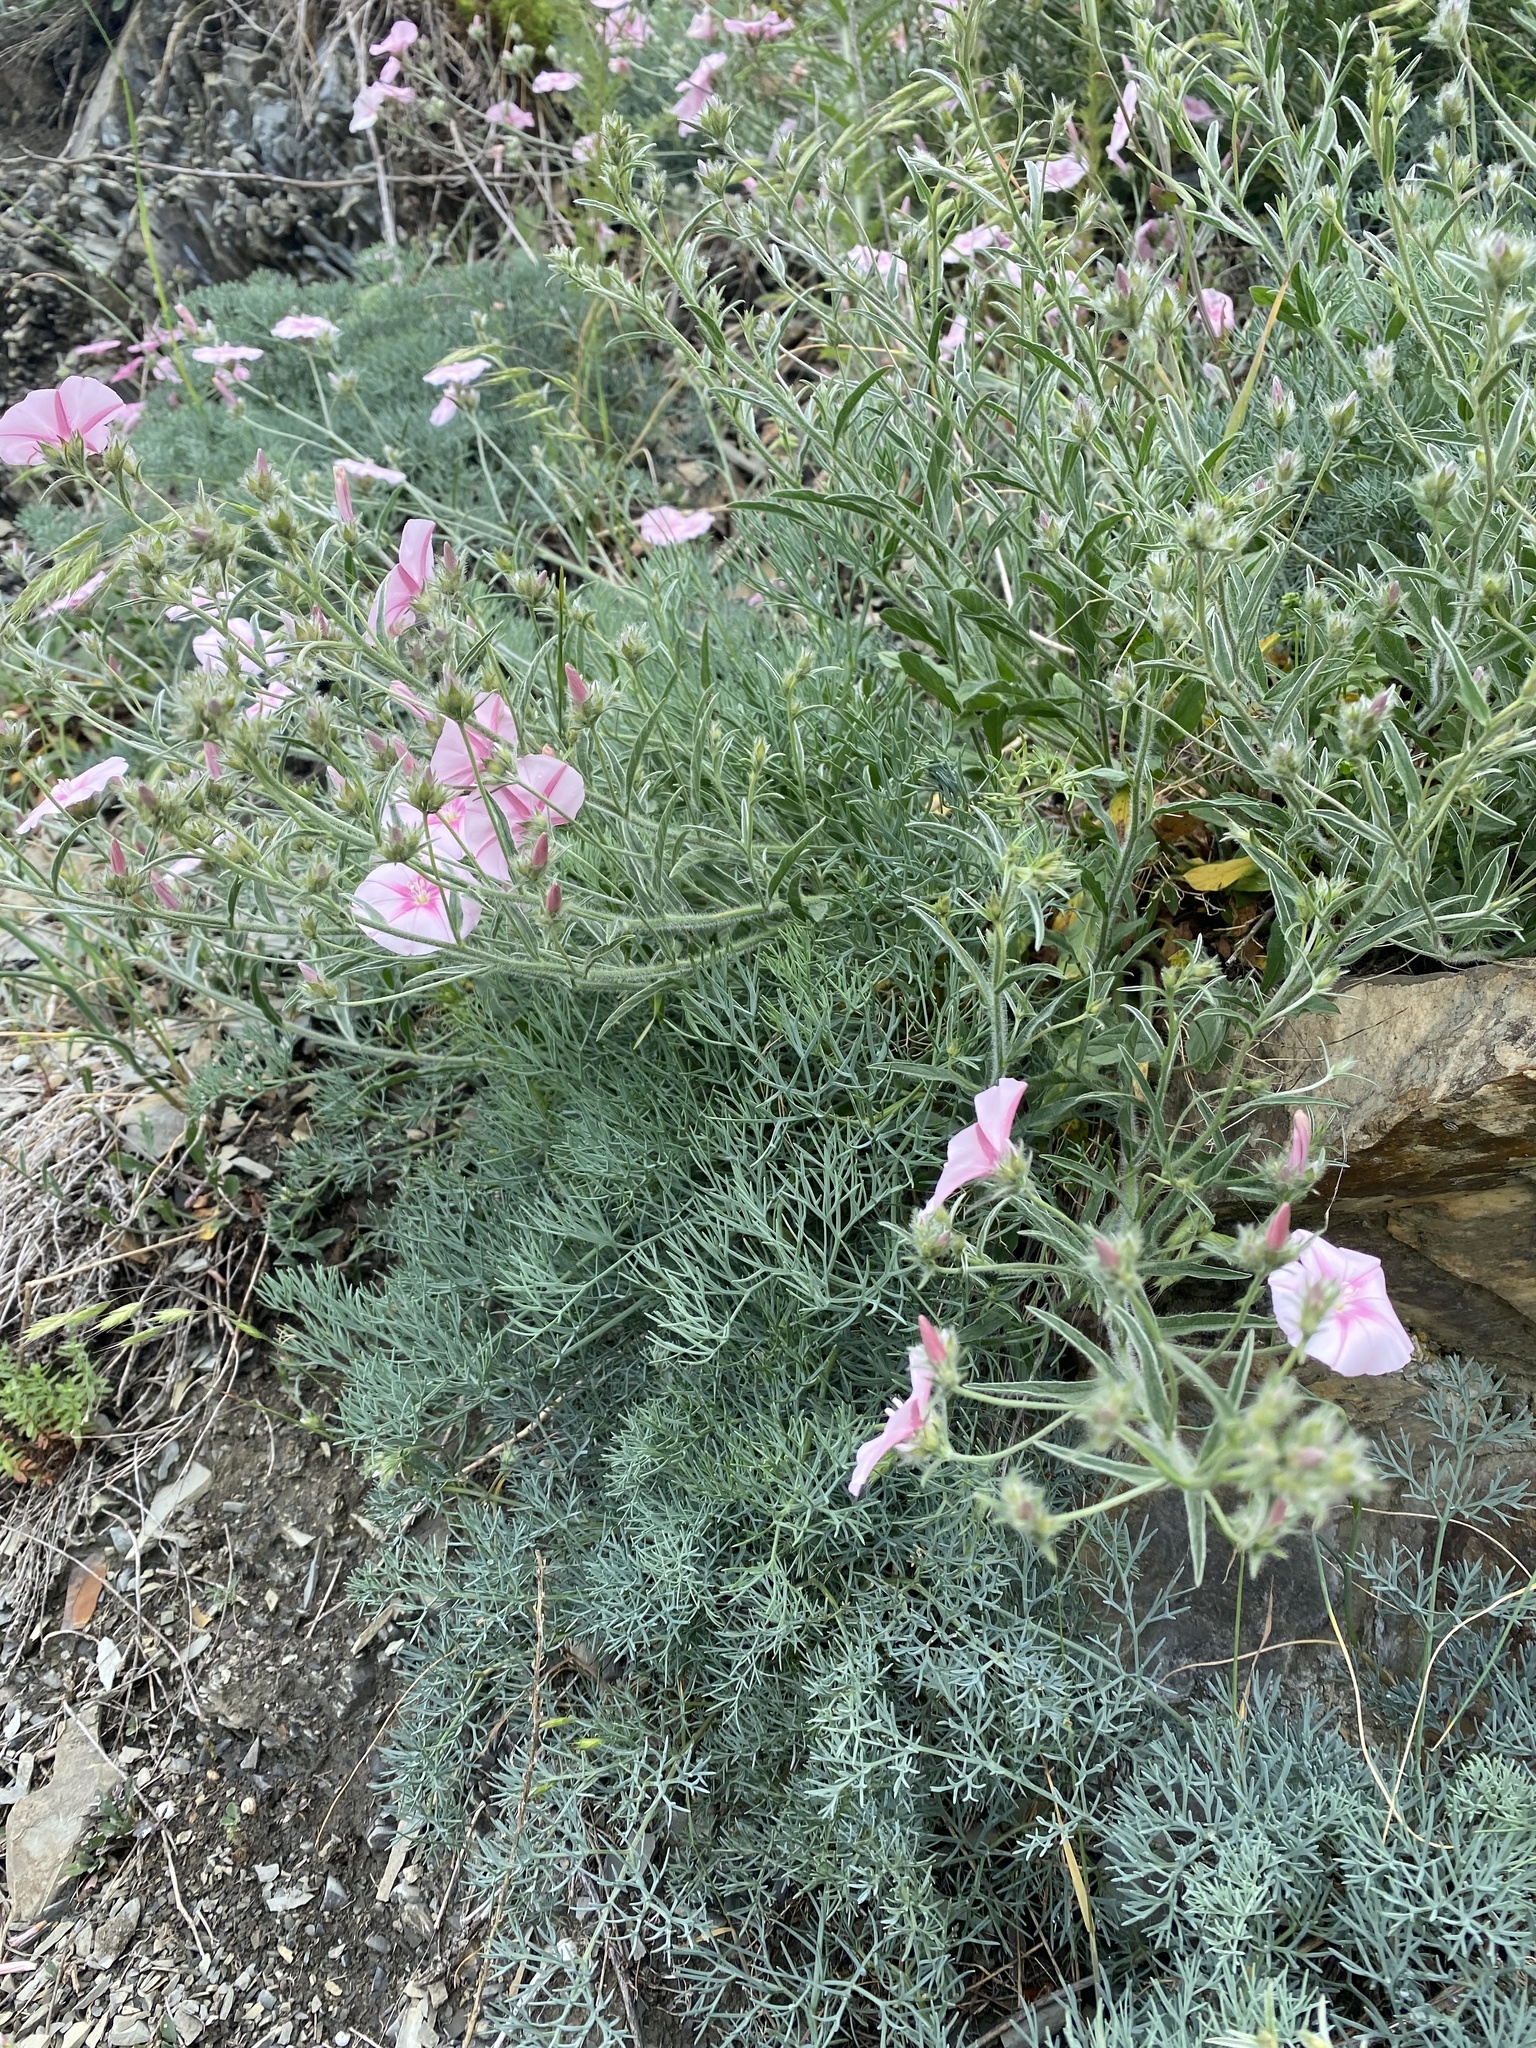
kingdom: Plantae
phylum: Tracheophyta
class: Magnoliopsida
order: Solanales
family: Convolvulaceae
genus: Convolvulus
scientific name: Convolvulus cantabrica
